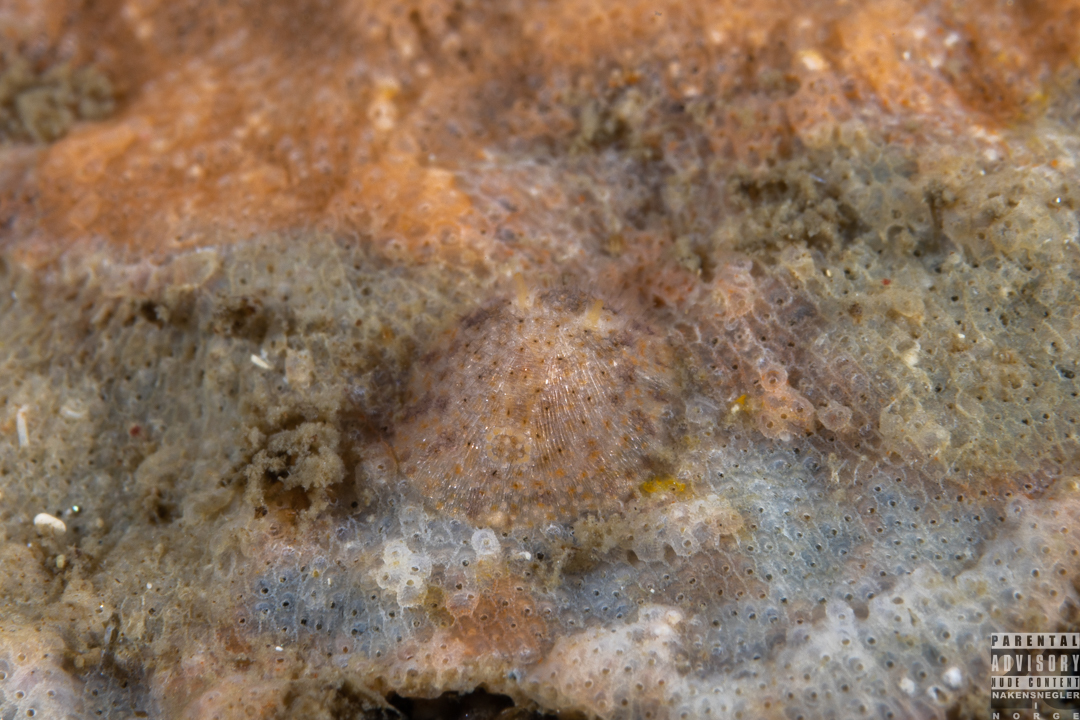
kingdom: Animalia
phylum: Mollusca
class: Gastropoda
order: Nudibranchia
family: Onchidorididae
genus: Idaliadoris
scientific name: Idaliadoris depressa
